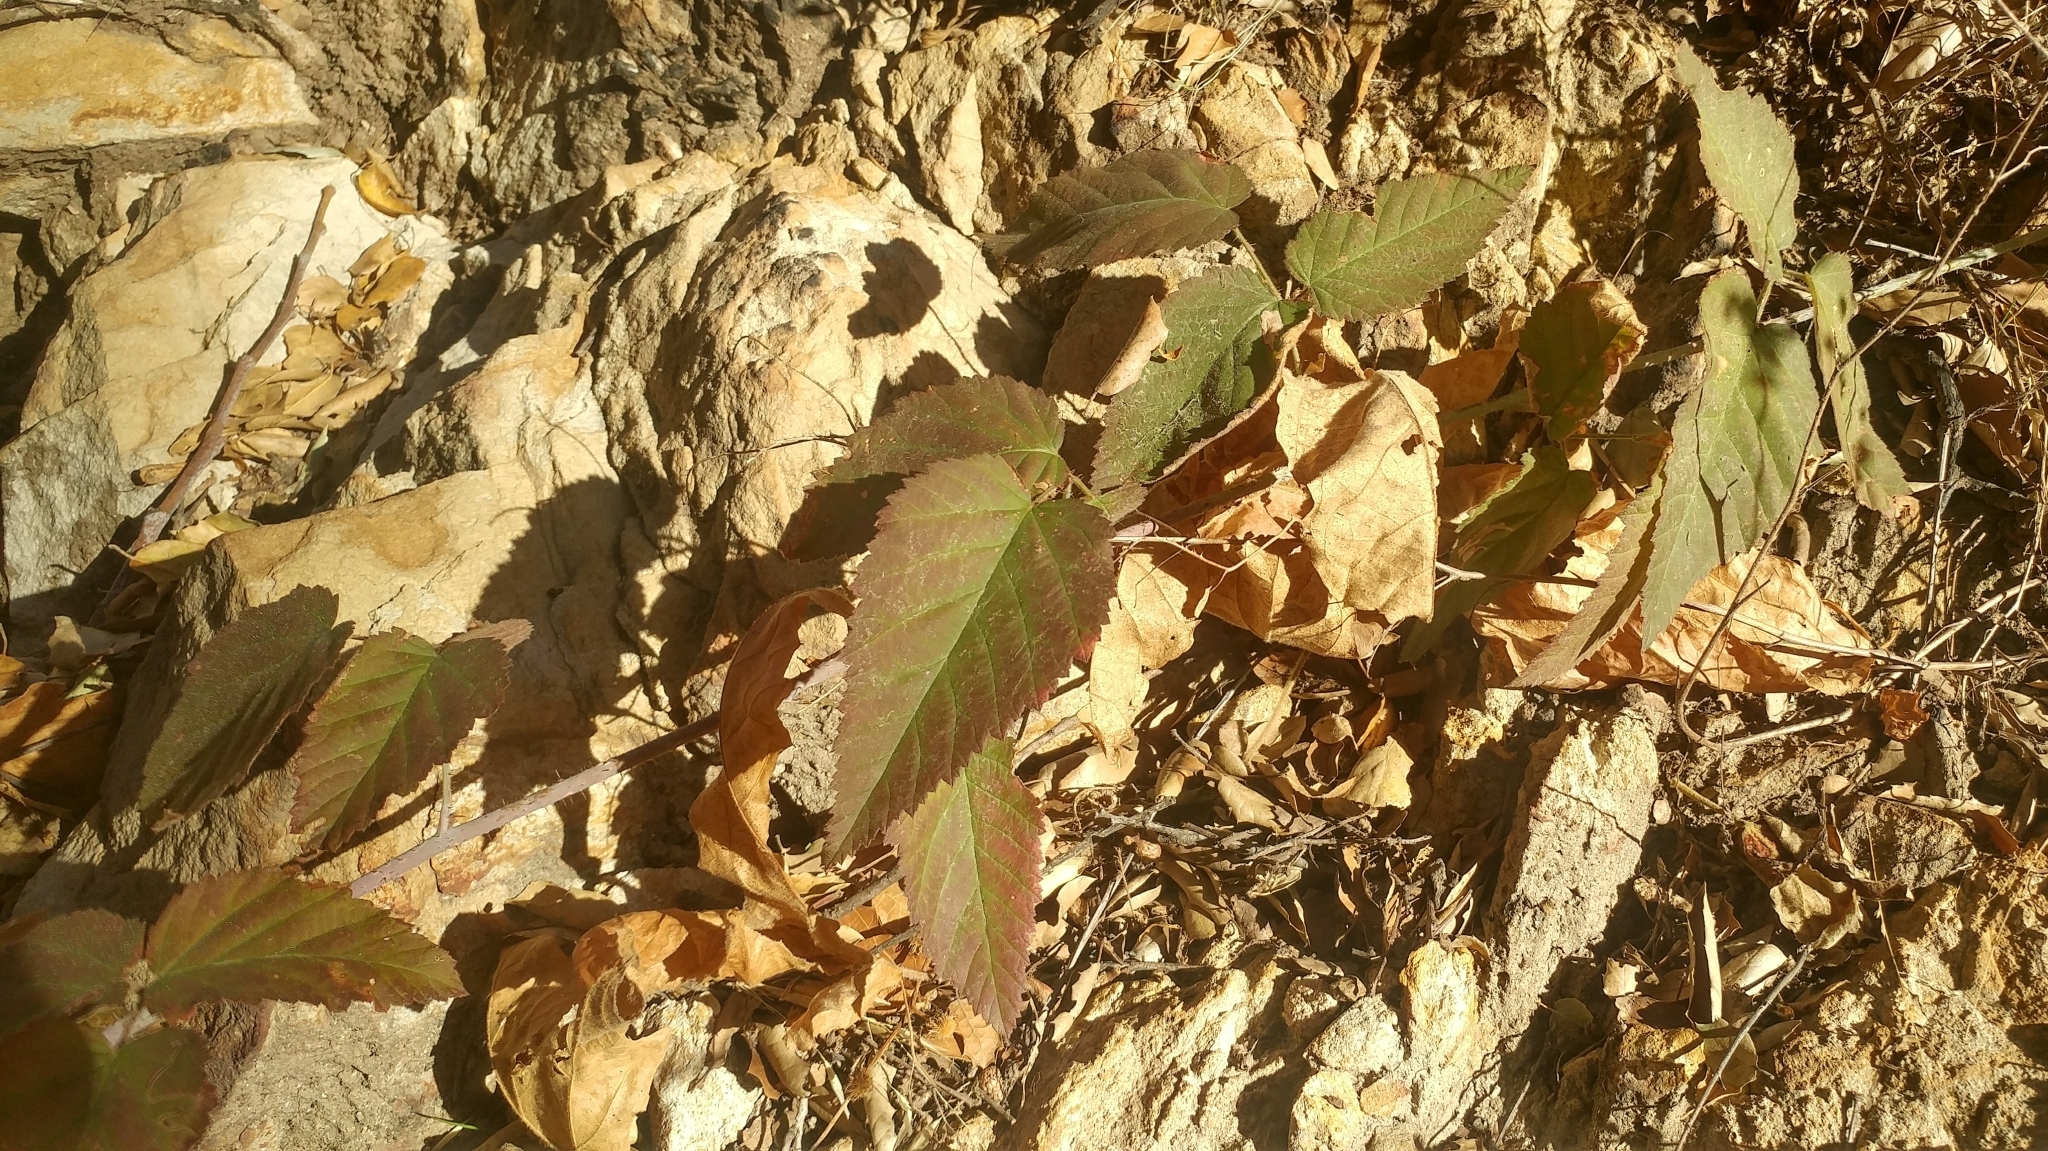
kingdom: Plantae
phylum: Tracheophyta
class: Magnoliopsida
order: Rosales
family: Rosaceae
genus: Rubus
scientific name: Rubus ursinus
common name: Pacific blackberry
